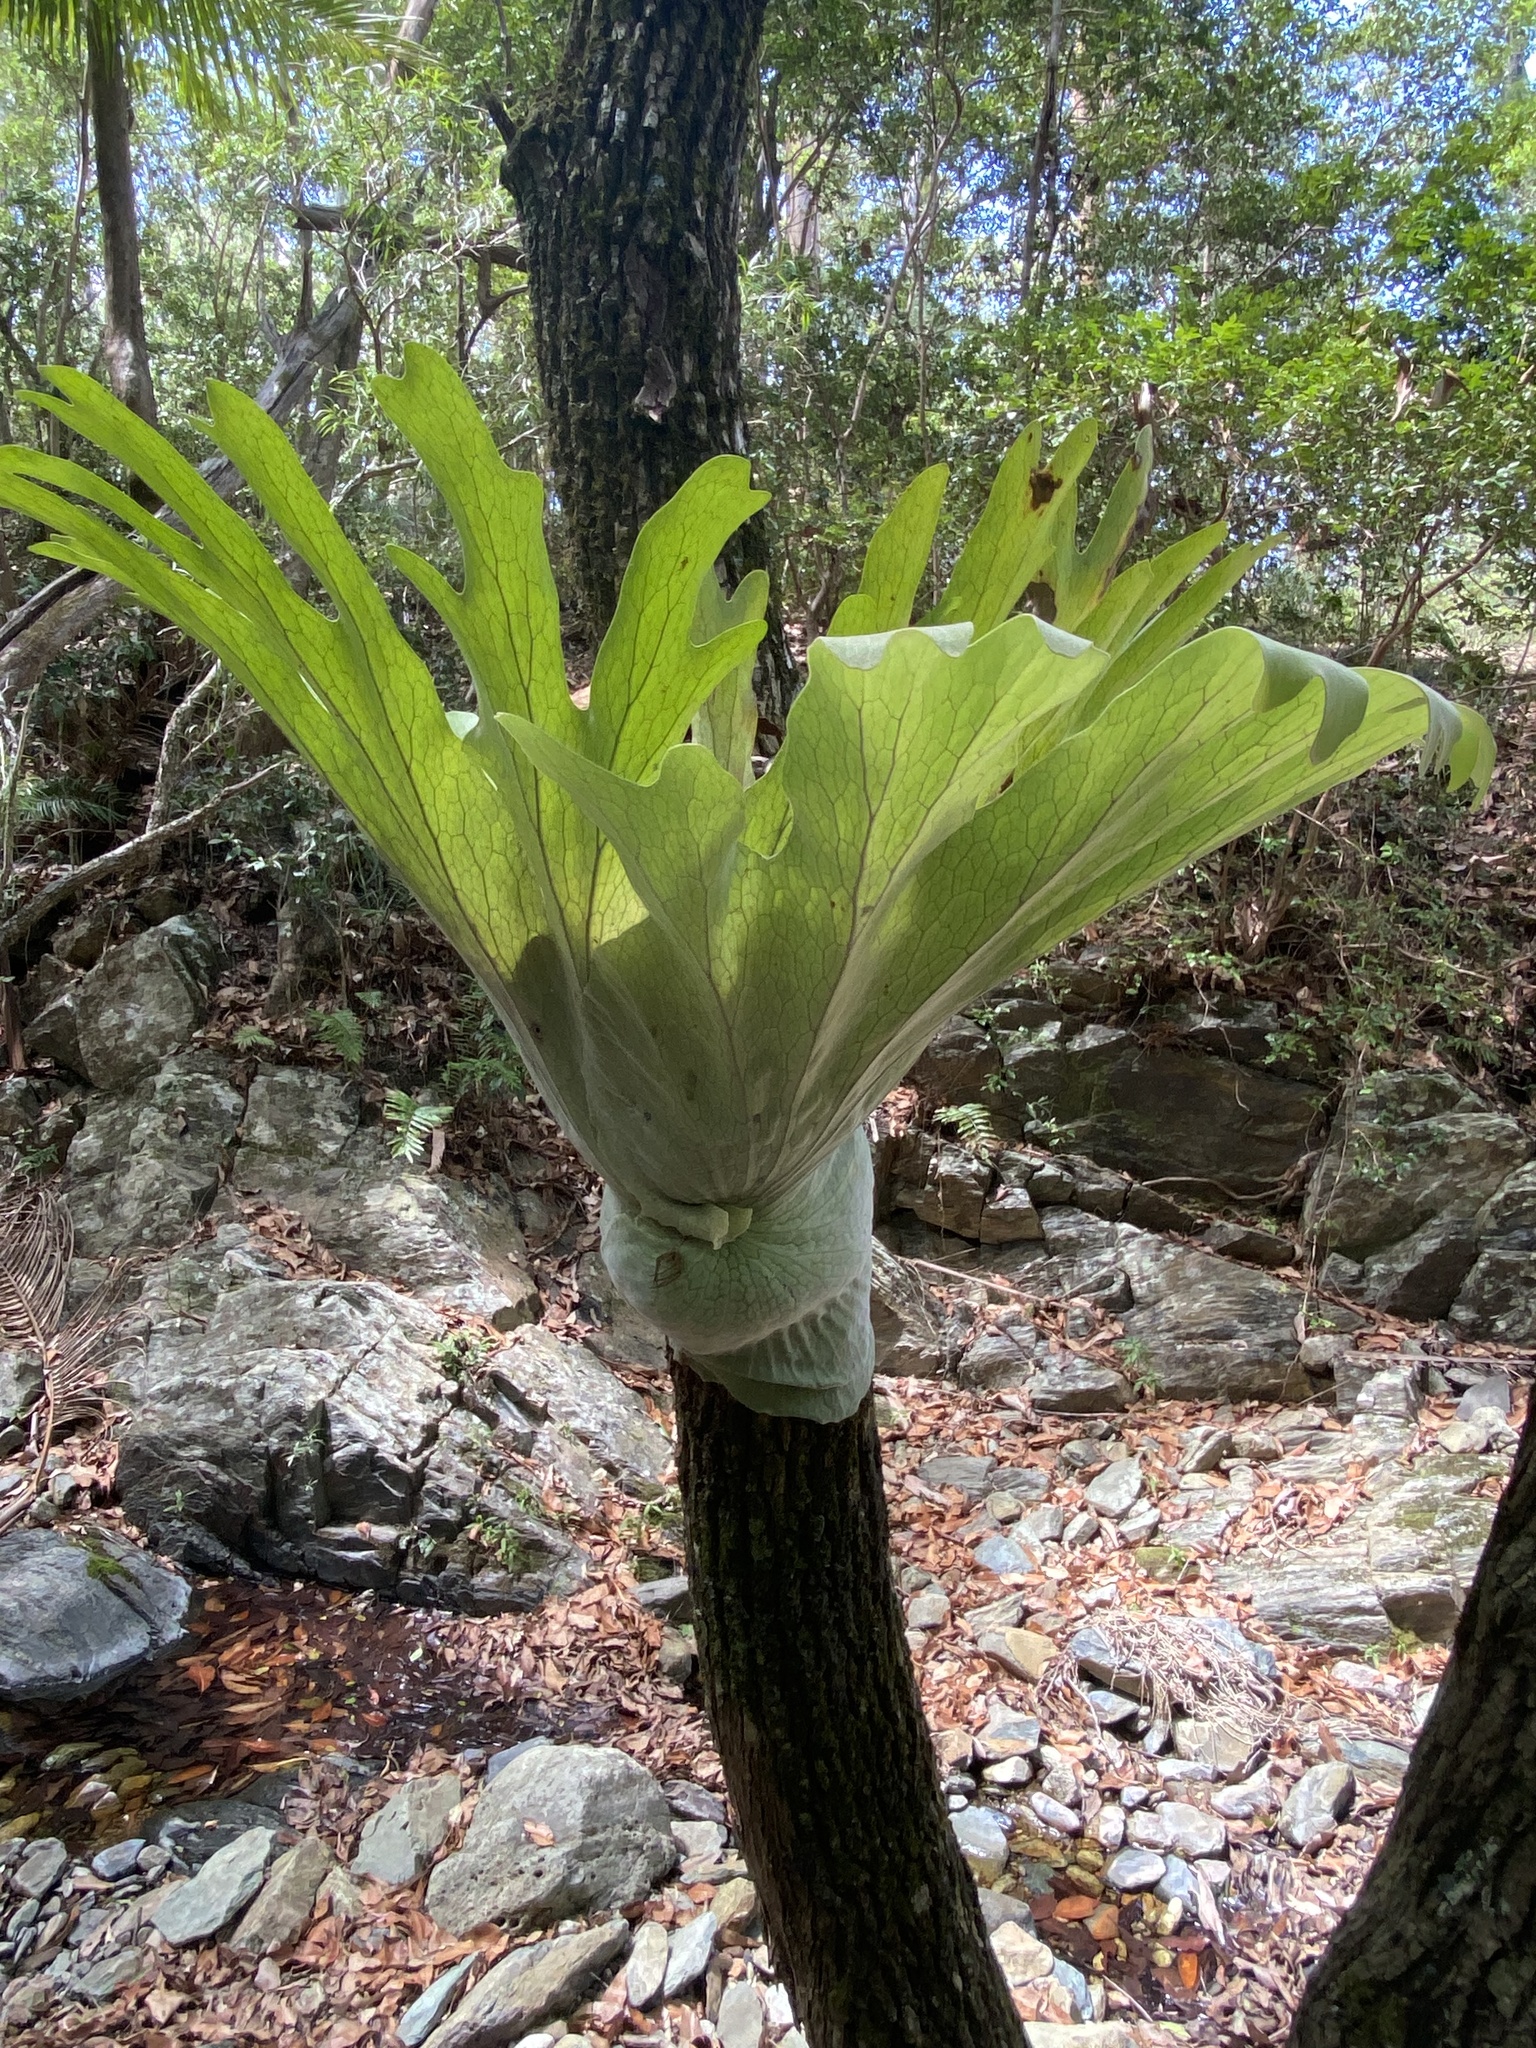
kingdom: Plantae
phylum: Tracheophyta
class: Polypodiopsida
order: Polypodiales
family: Polypodiaceae
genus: Platycerium
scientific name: Platycerium superbum
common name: Staghorn fern
